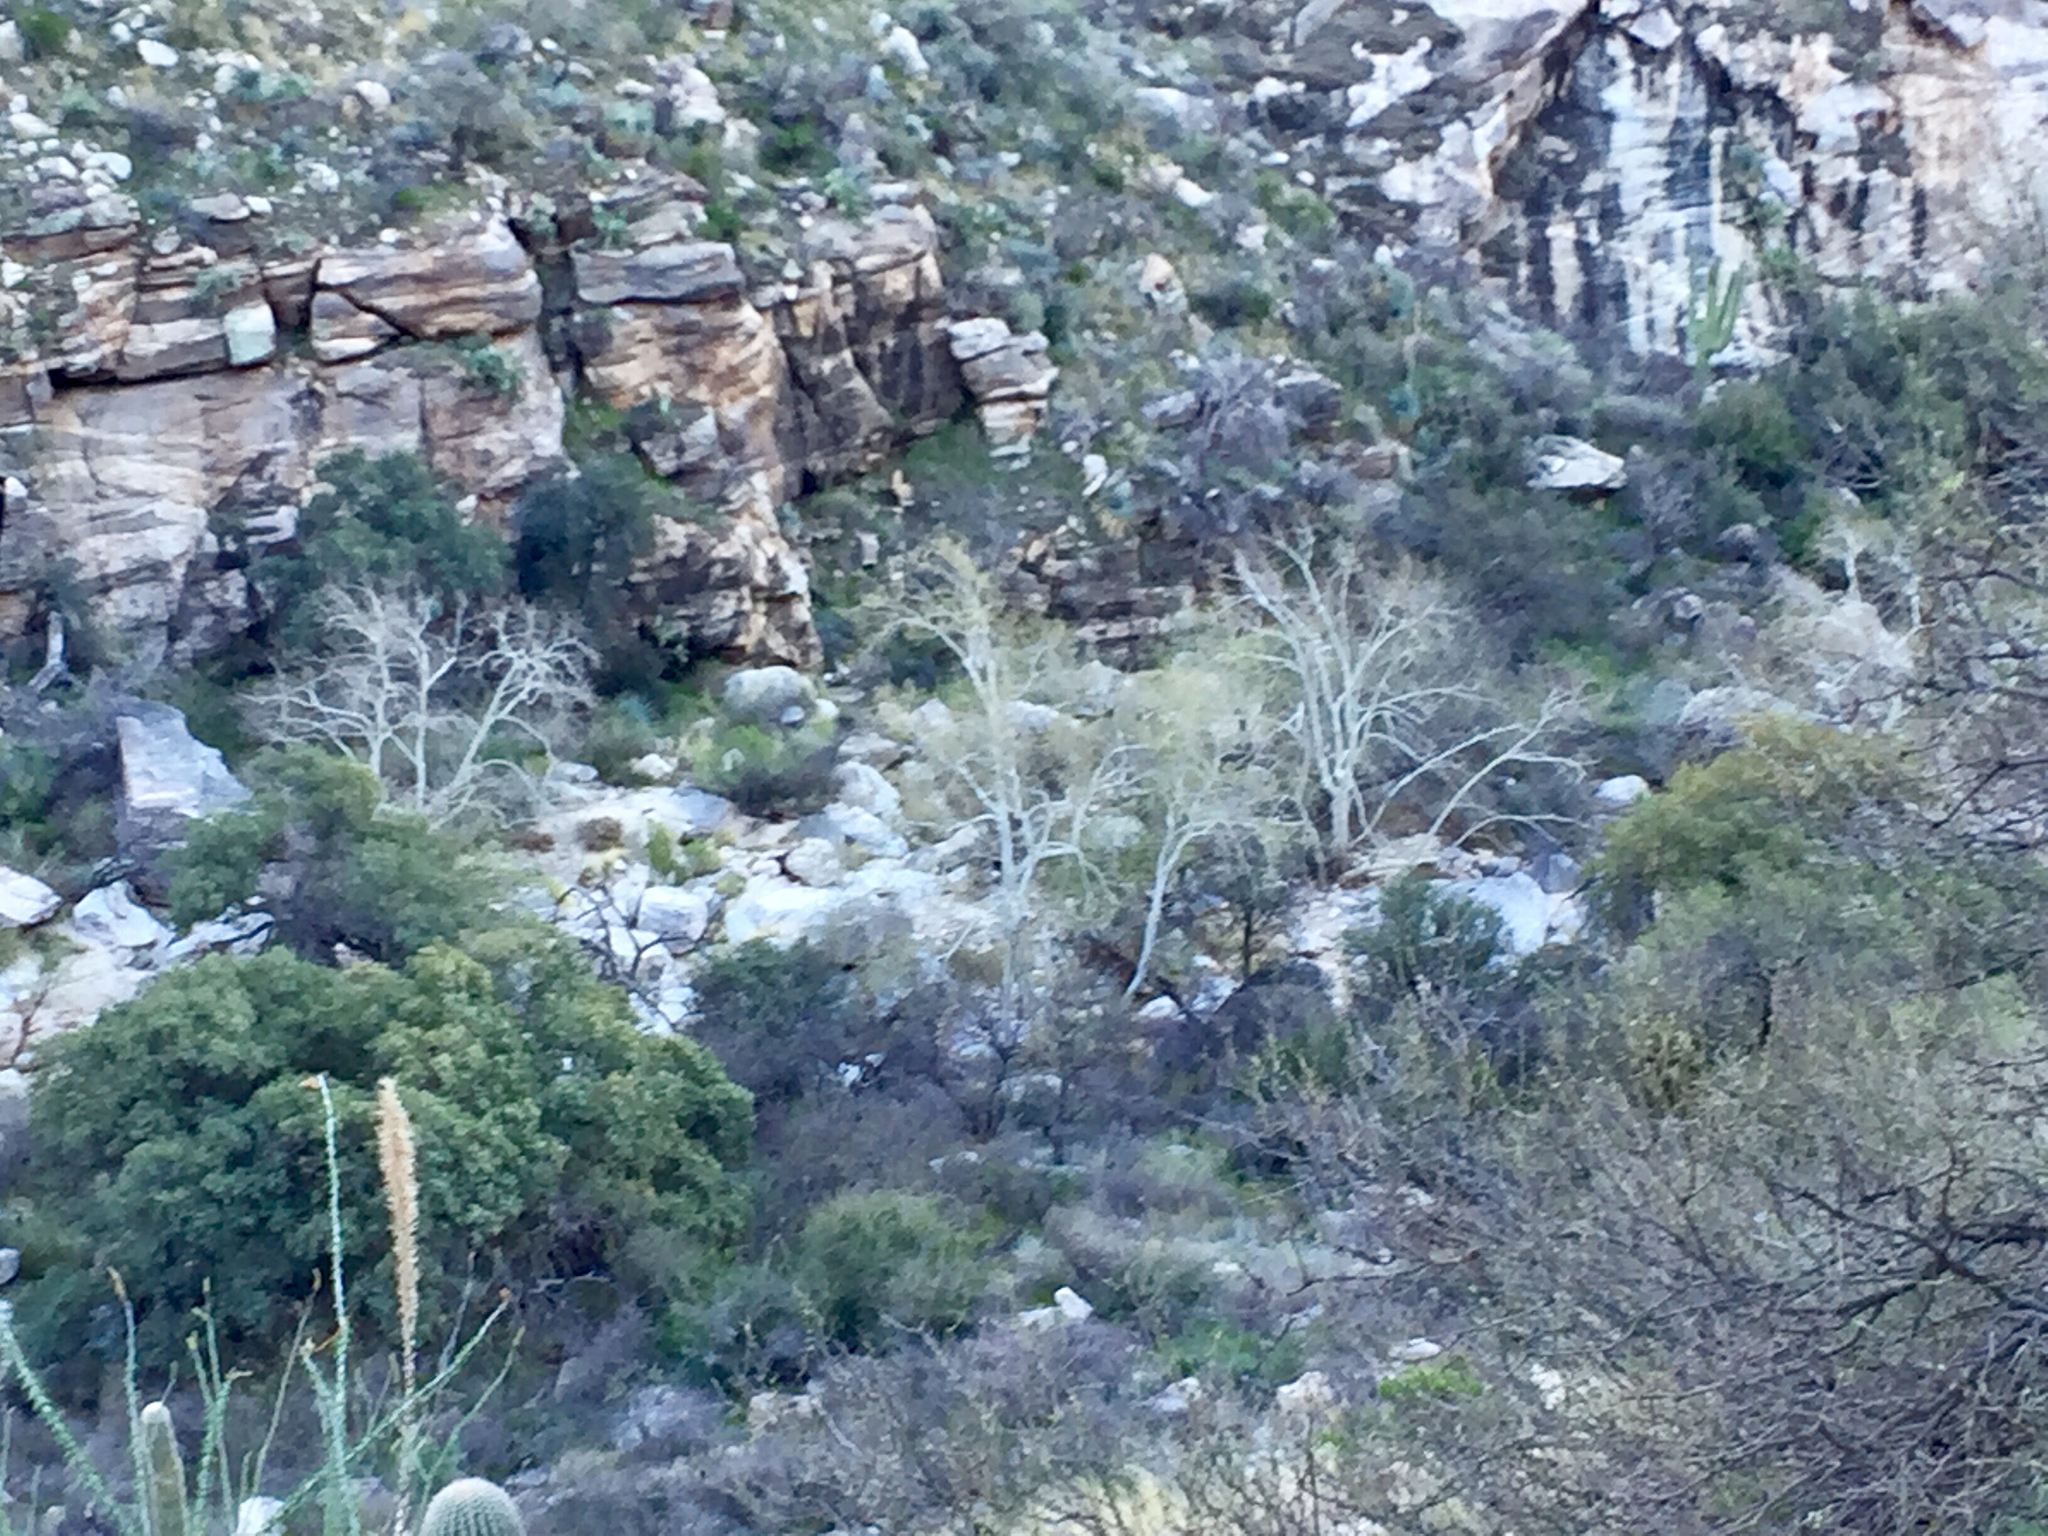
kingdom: Plantae
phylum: Tracheophyta
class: Magnoliopsida
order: Proteales
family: Platanaceae
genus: Platanus
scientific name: Platanus wrightii
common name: Arizona sycamore
